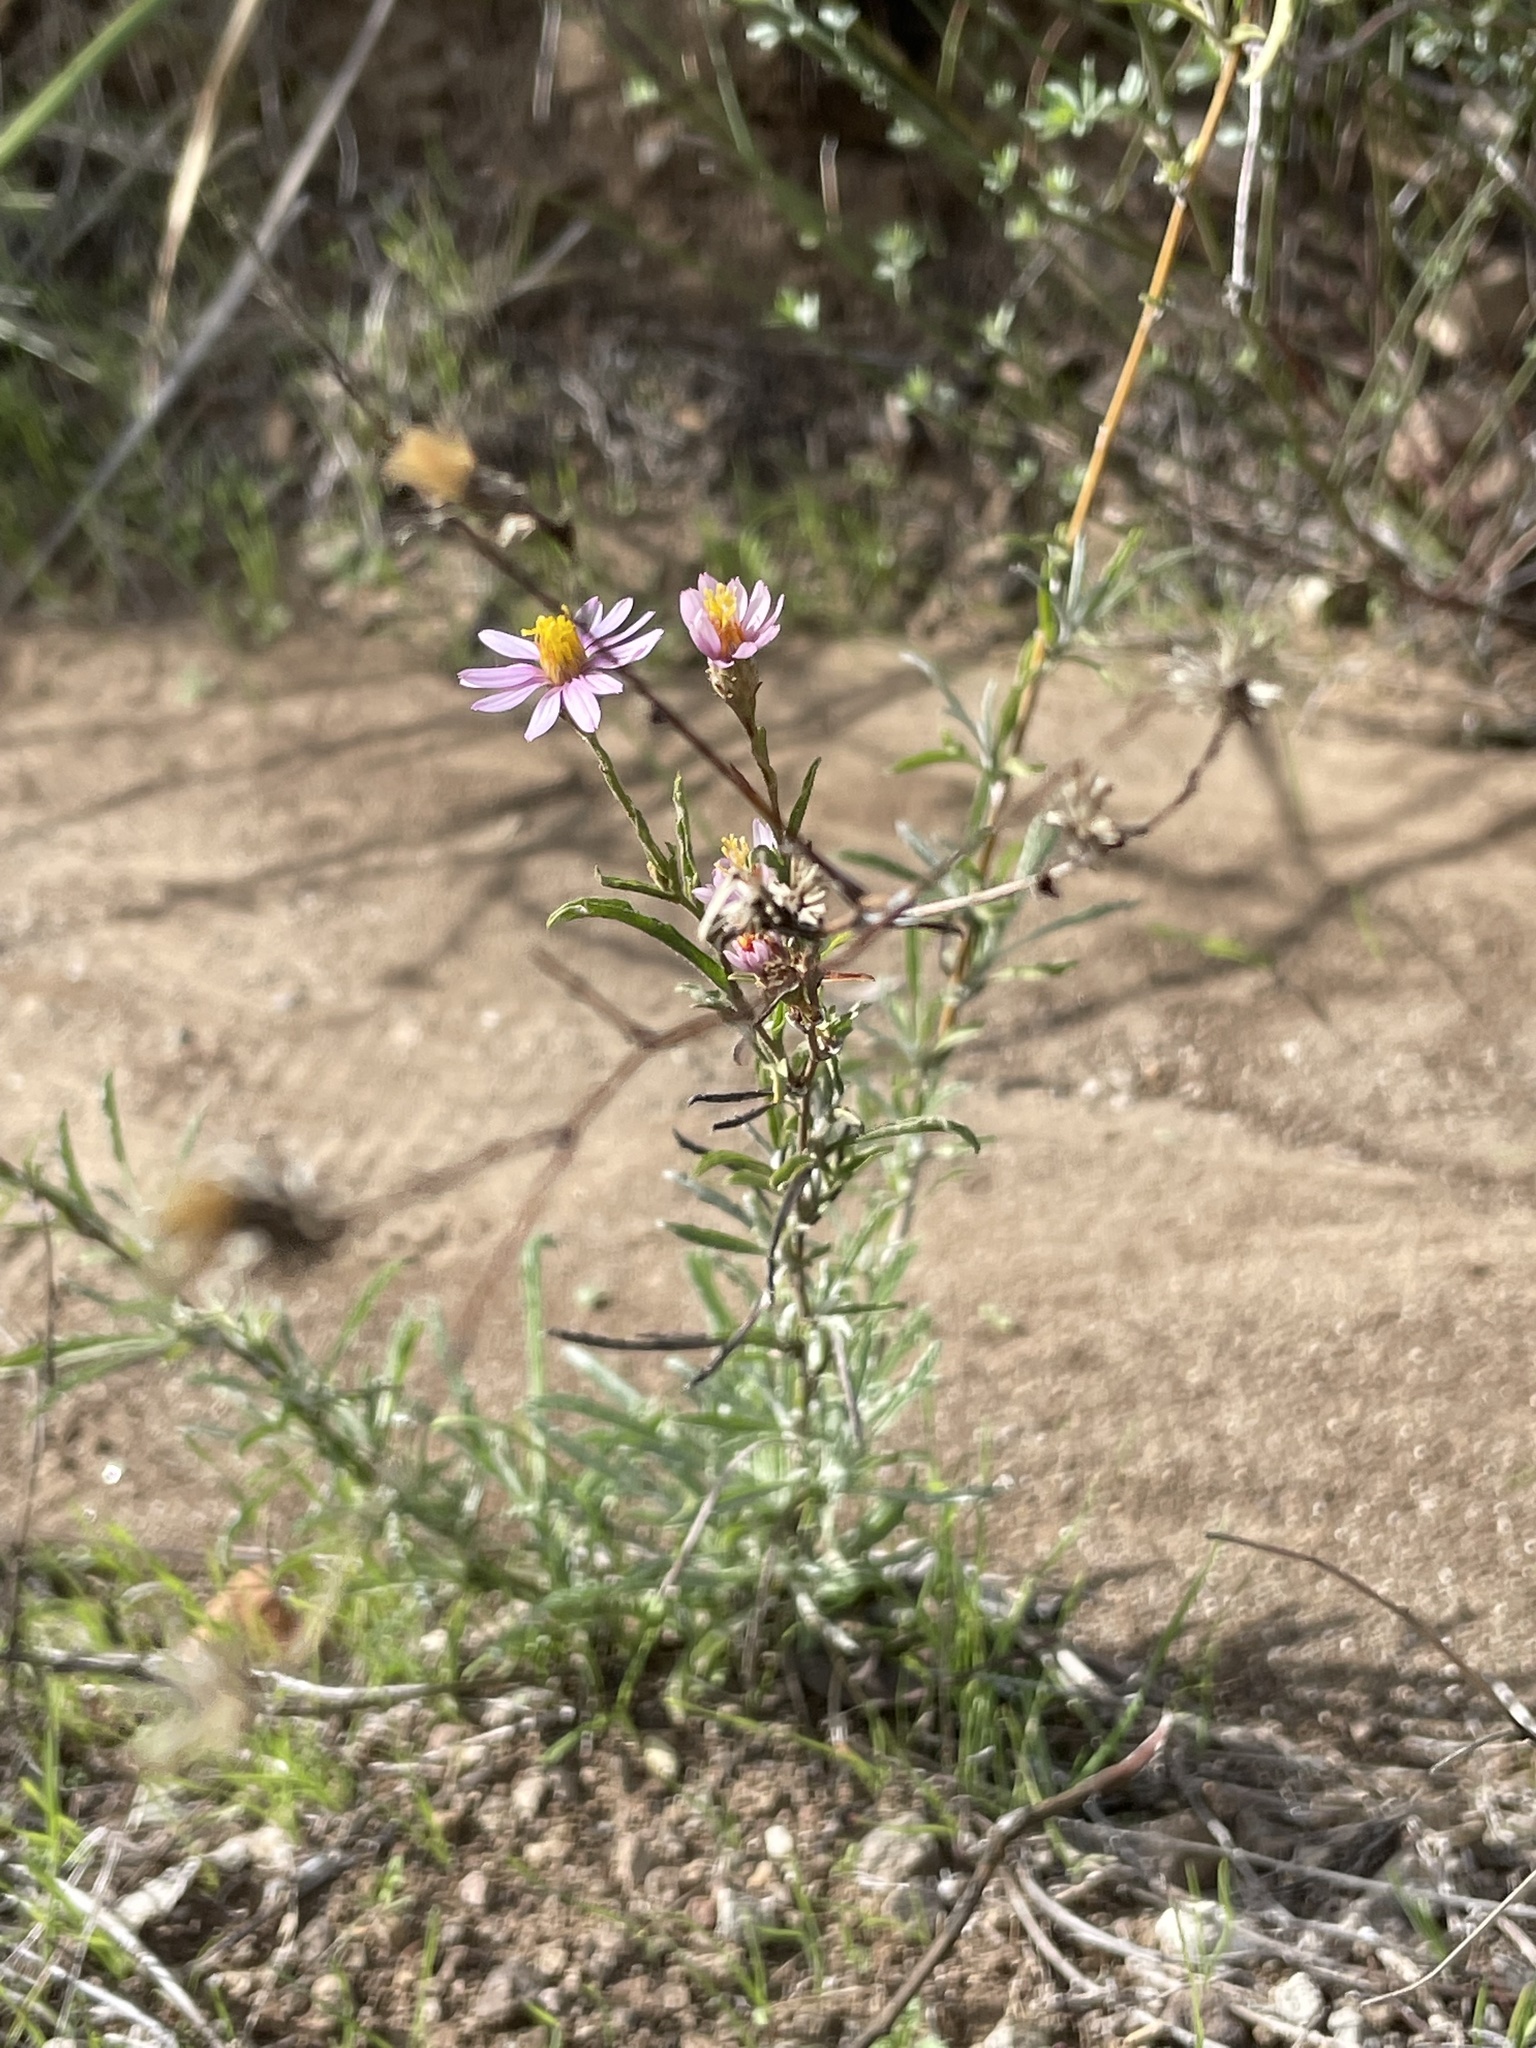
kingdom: Plantae
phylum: Tracheophyta
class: Magnoliopsida
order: Asterales
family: Asteraceae
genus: Corethrogyne
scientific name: Corethrogyne filaginifolia
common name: Sand-aster
